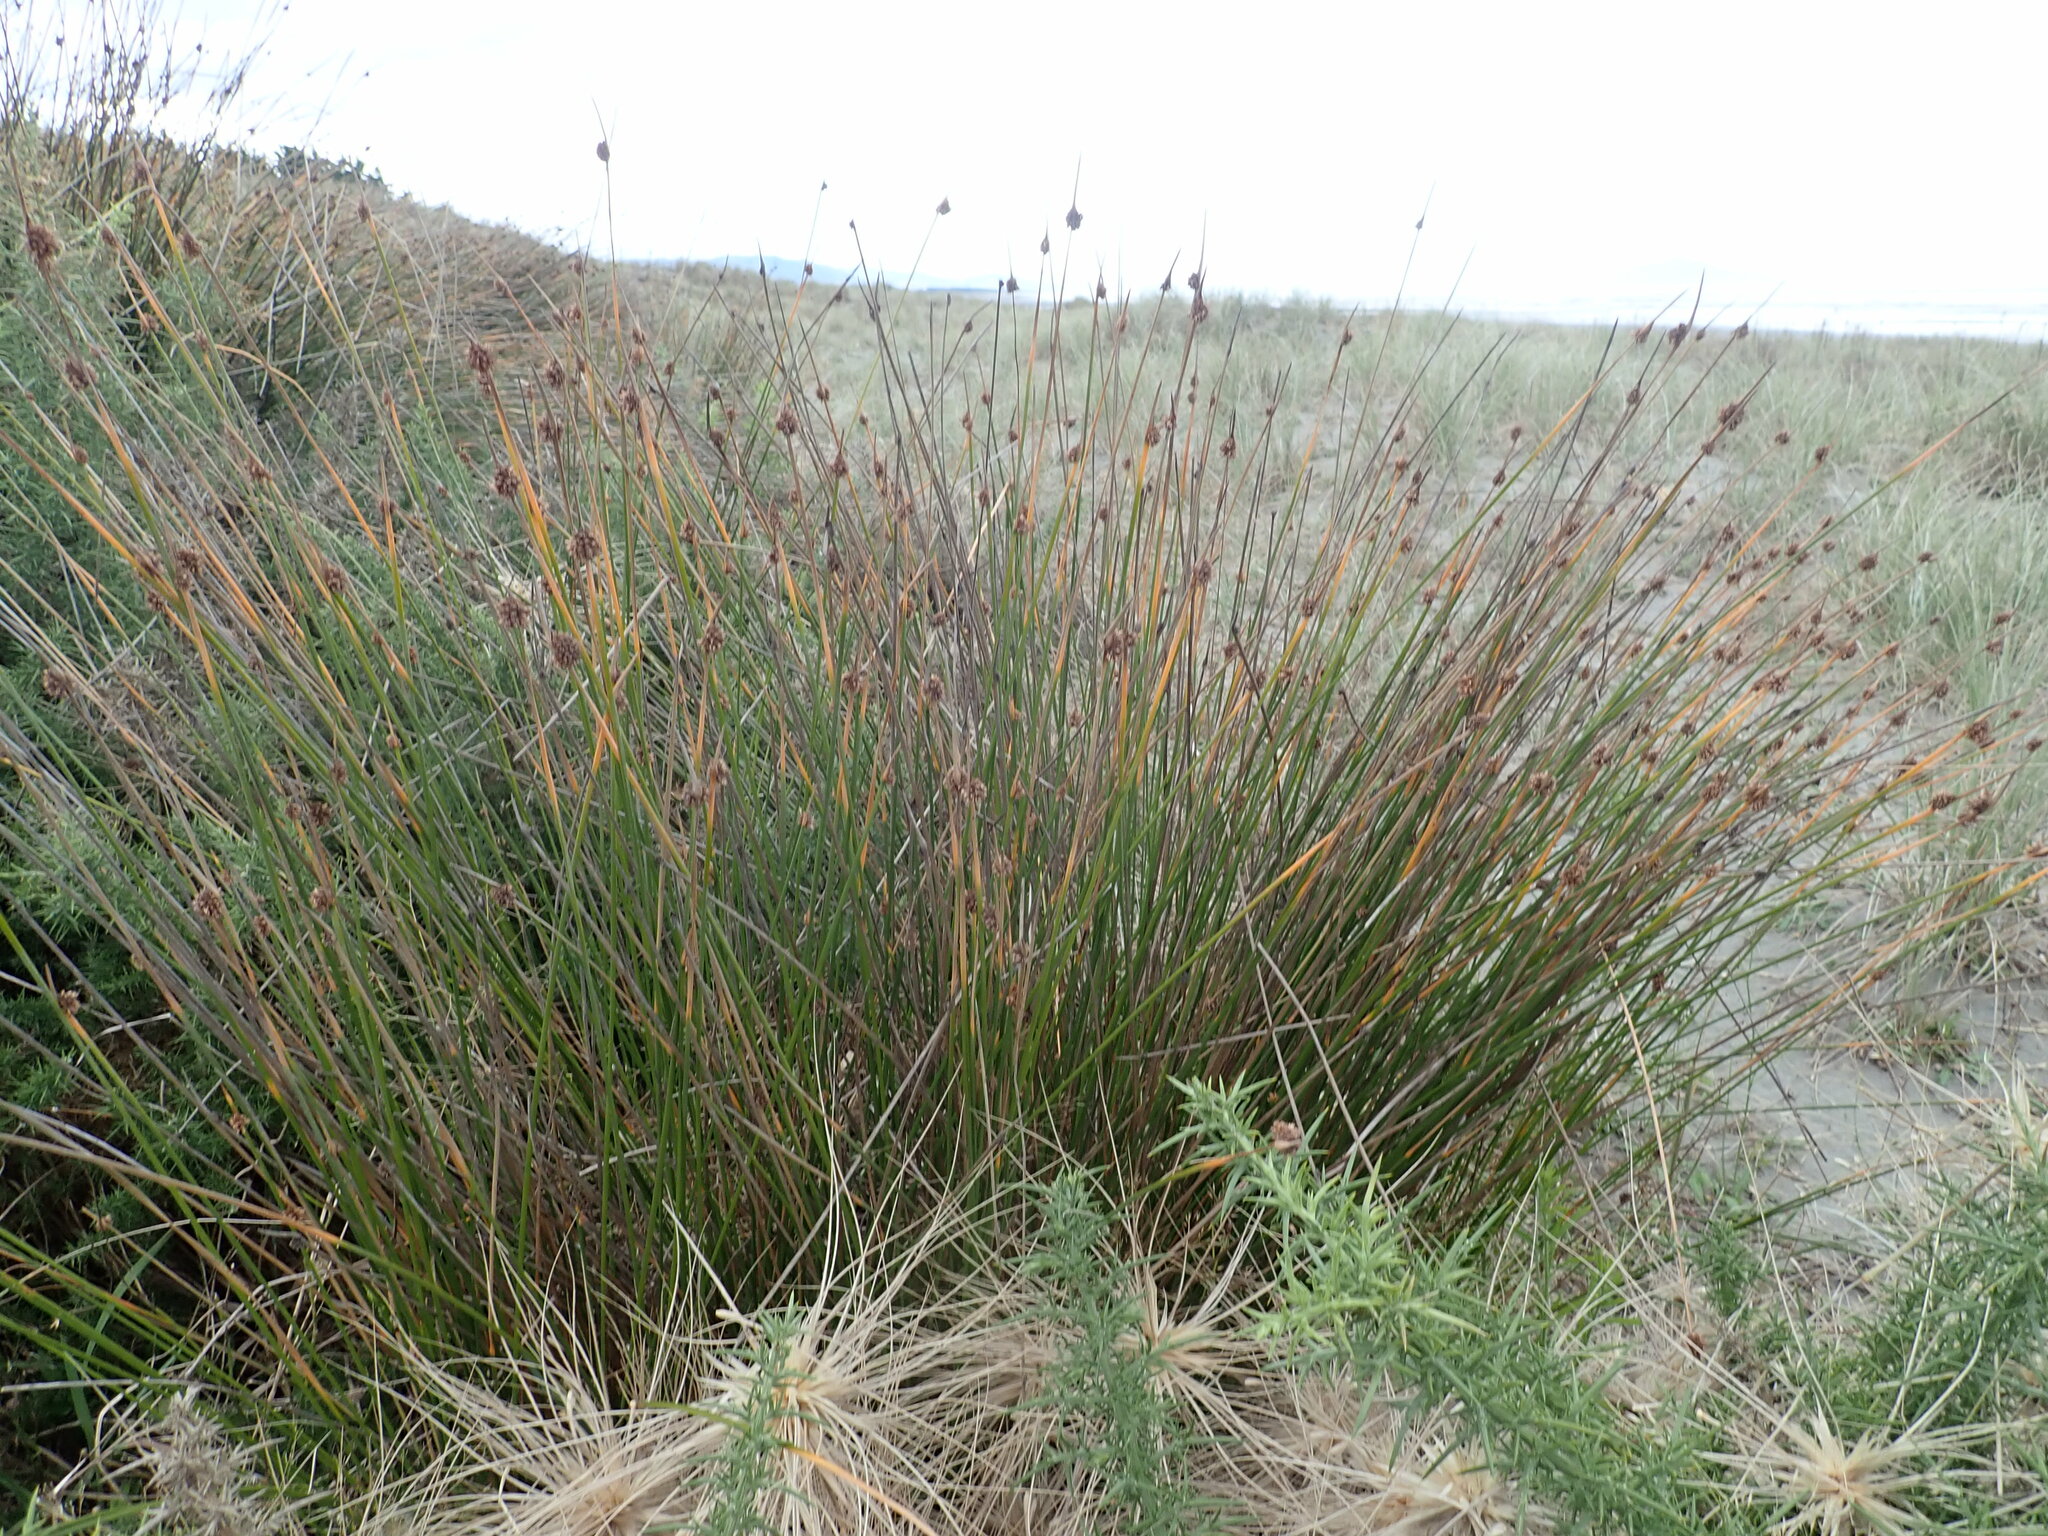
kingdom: Plantae
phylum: Tracheophyta
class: Liliopsida
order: Poales
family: Cyperaceae
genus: Ficinia
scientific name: Ficinia nodosa
